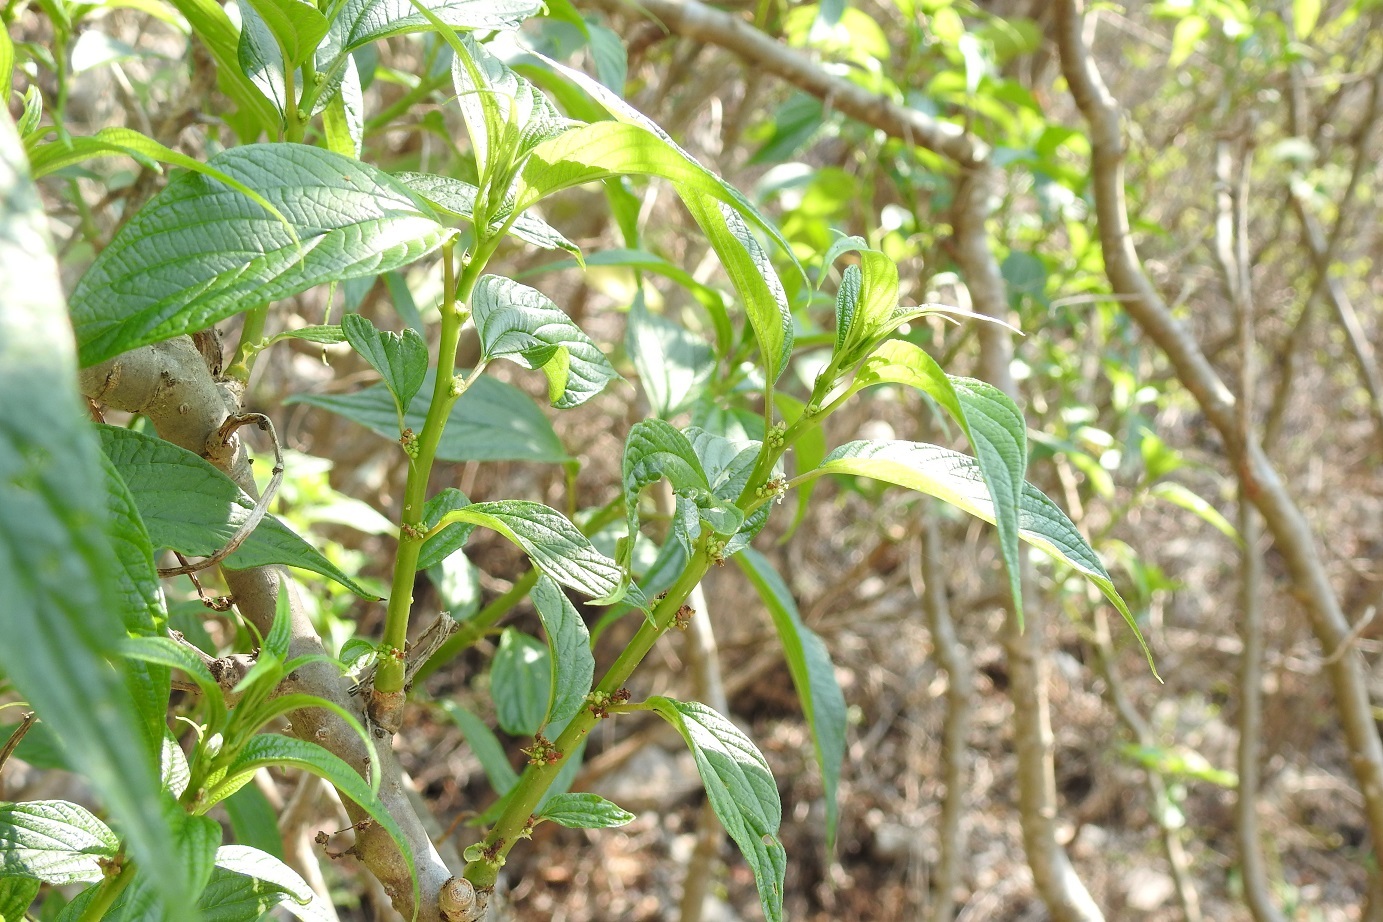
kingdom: Plantae
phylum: Tracheophyta
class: Magnoliopsida
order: Rosales
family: Urticaceae
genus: Pouzolzia
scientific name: Pouzolzia occidentalis
